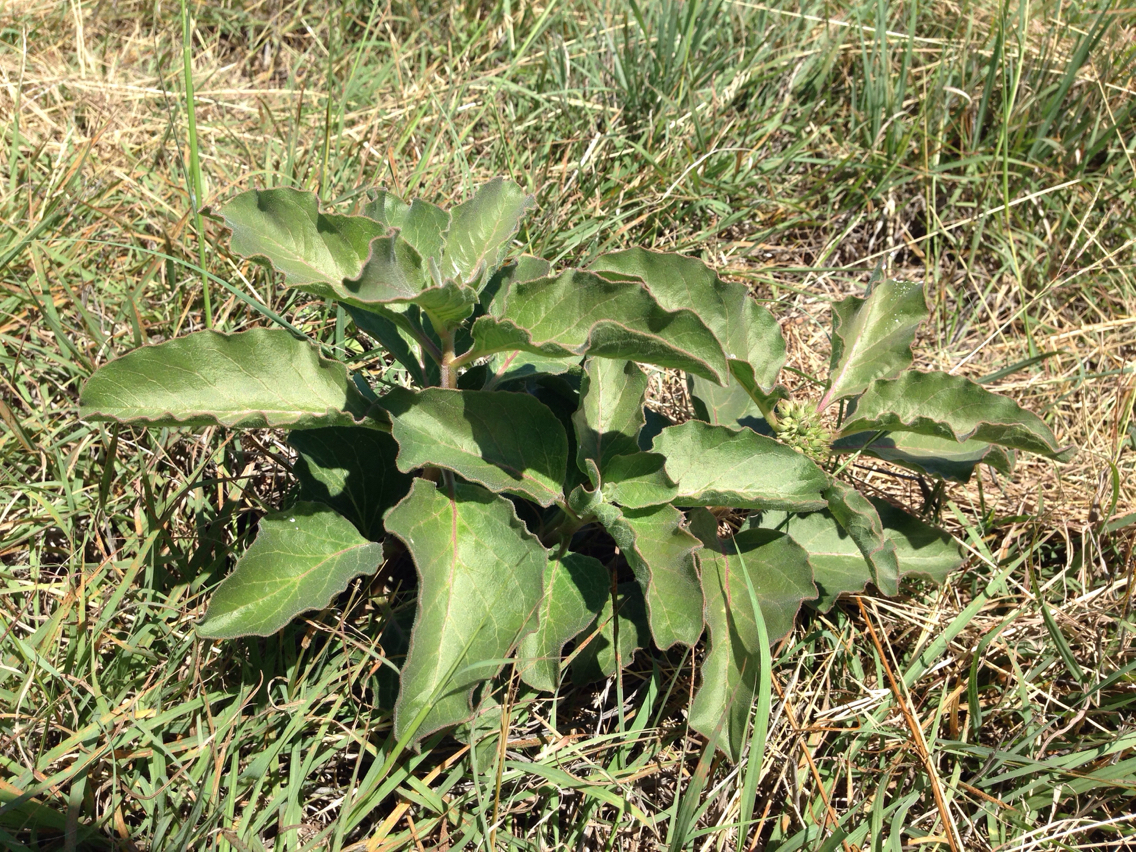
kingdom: Plantae
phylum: Tracheophyta
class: Magnoliopsida
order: Gentianales
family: Apocynaceae
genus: Asclepias
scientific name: Asclepias oenotheroides
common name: Zizotes milkweed
